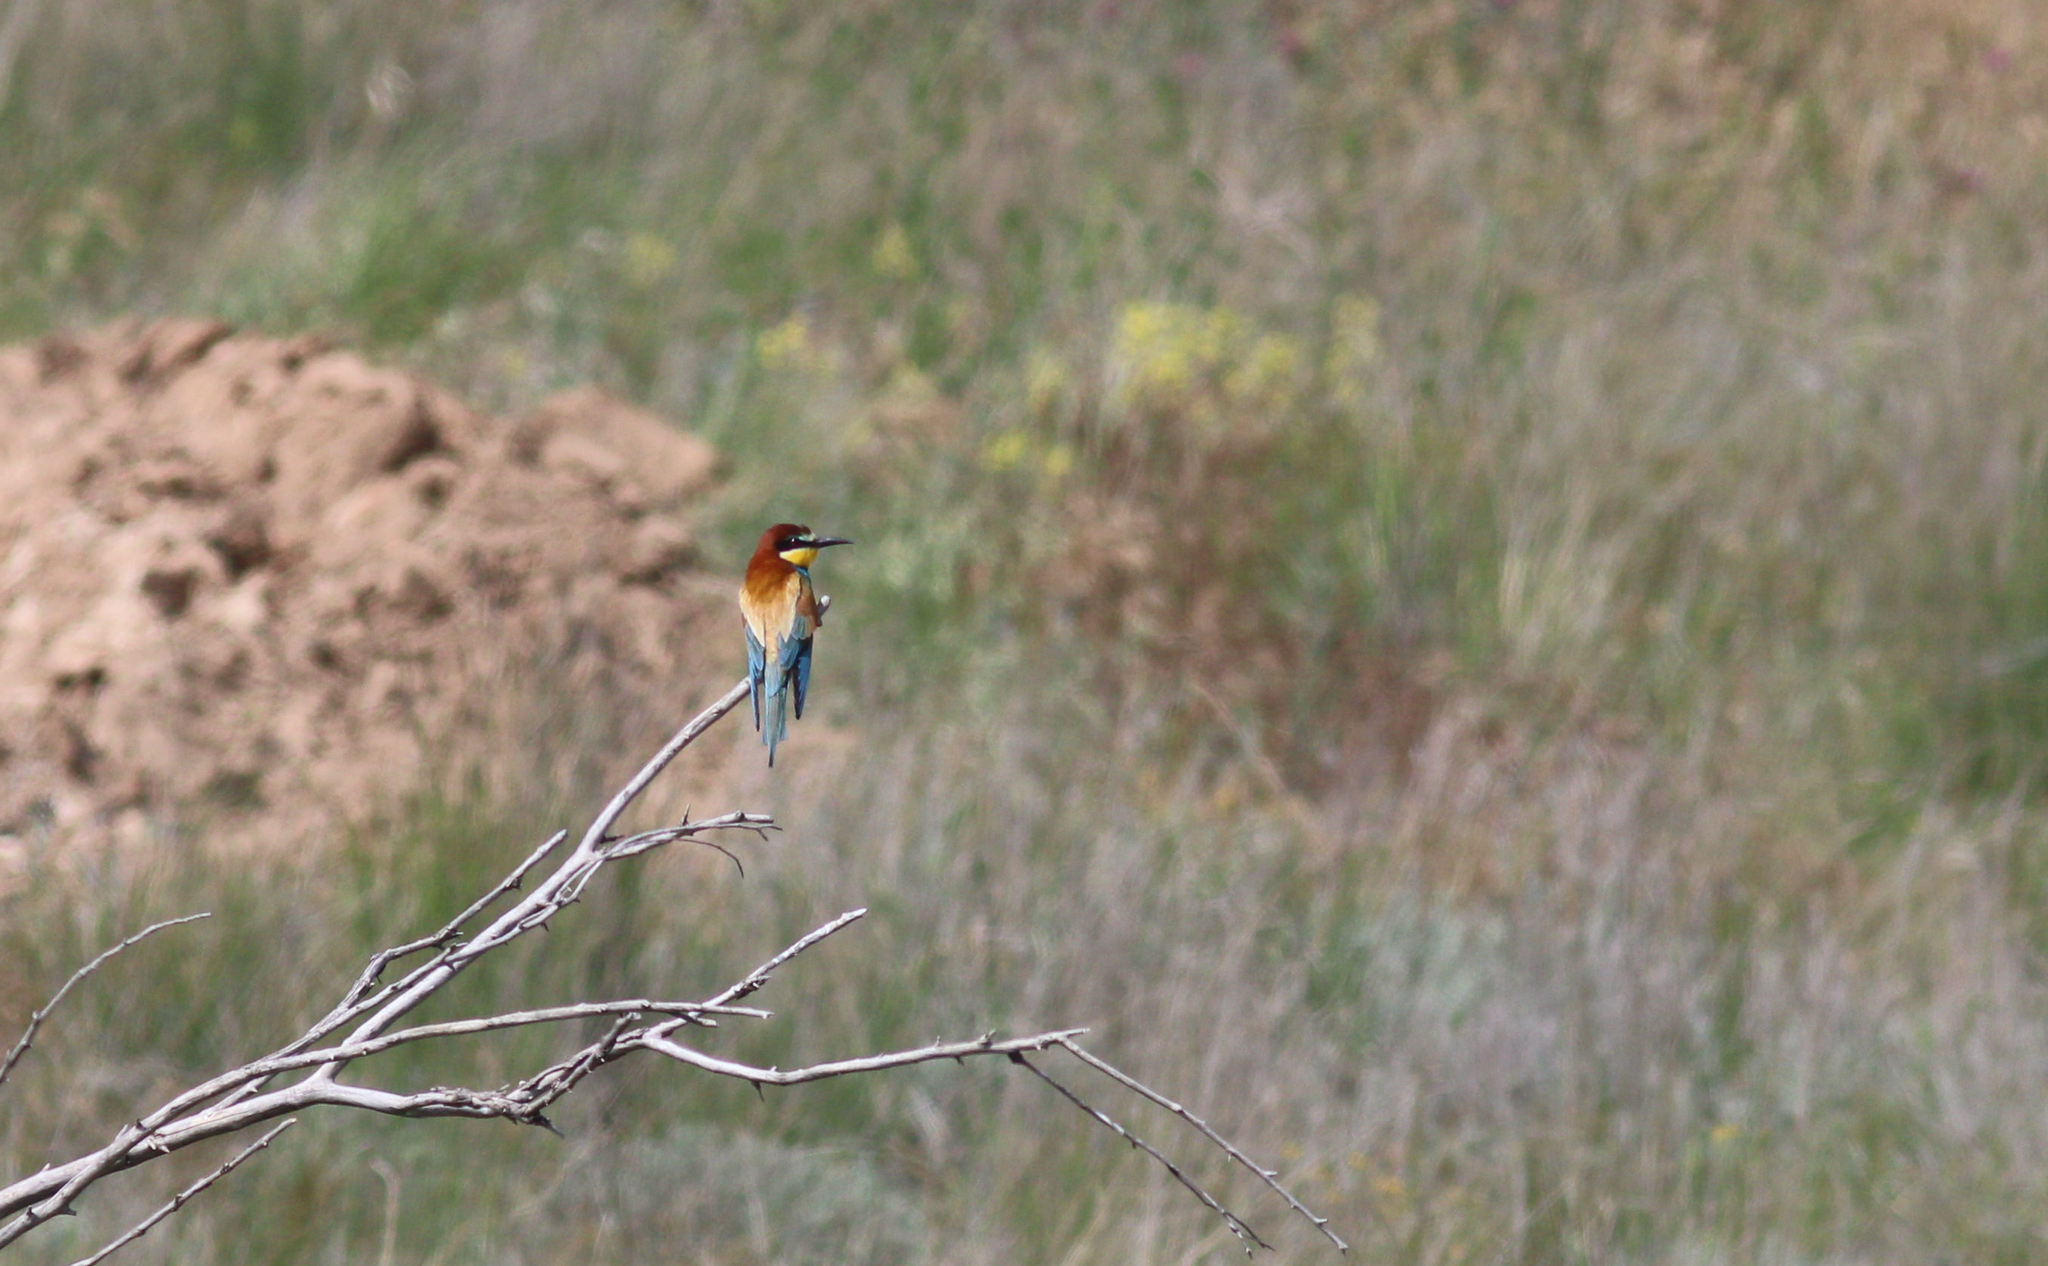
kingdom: Animalia
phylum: Chordata
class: Aves
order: Coraciiformes
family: Meropidae
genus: Merops
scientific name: Merops apiaster
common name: European bee-eater
